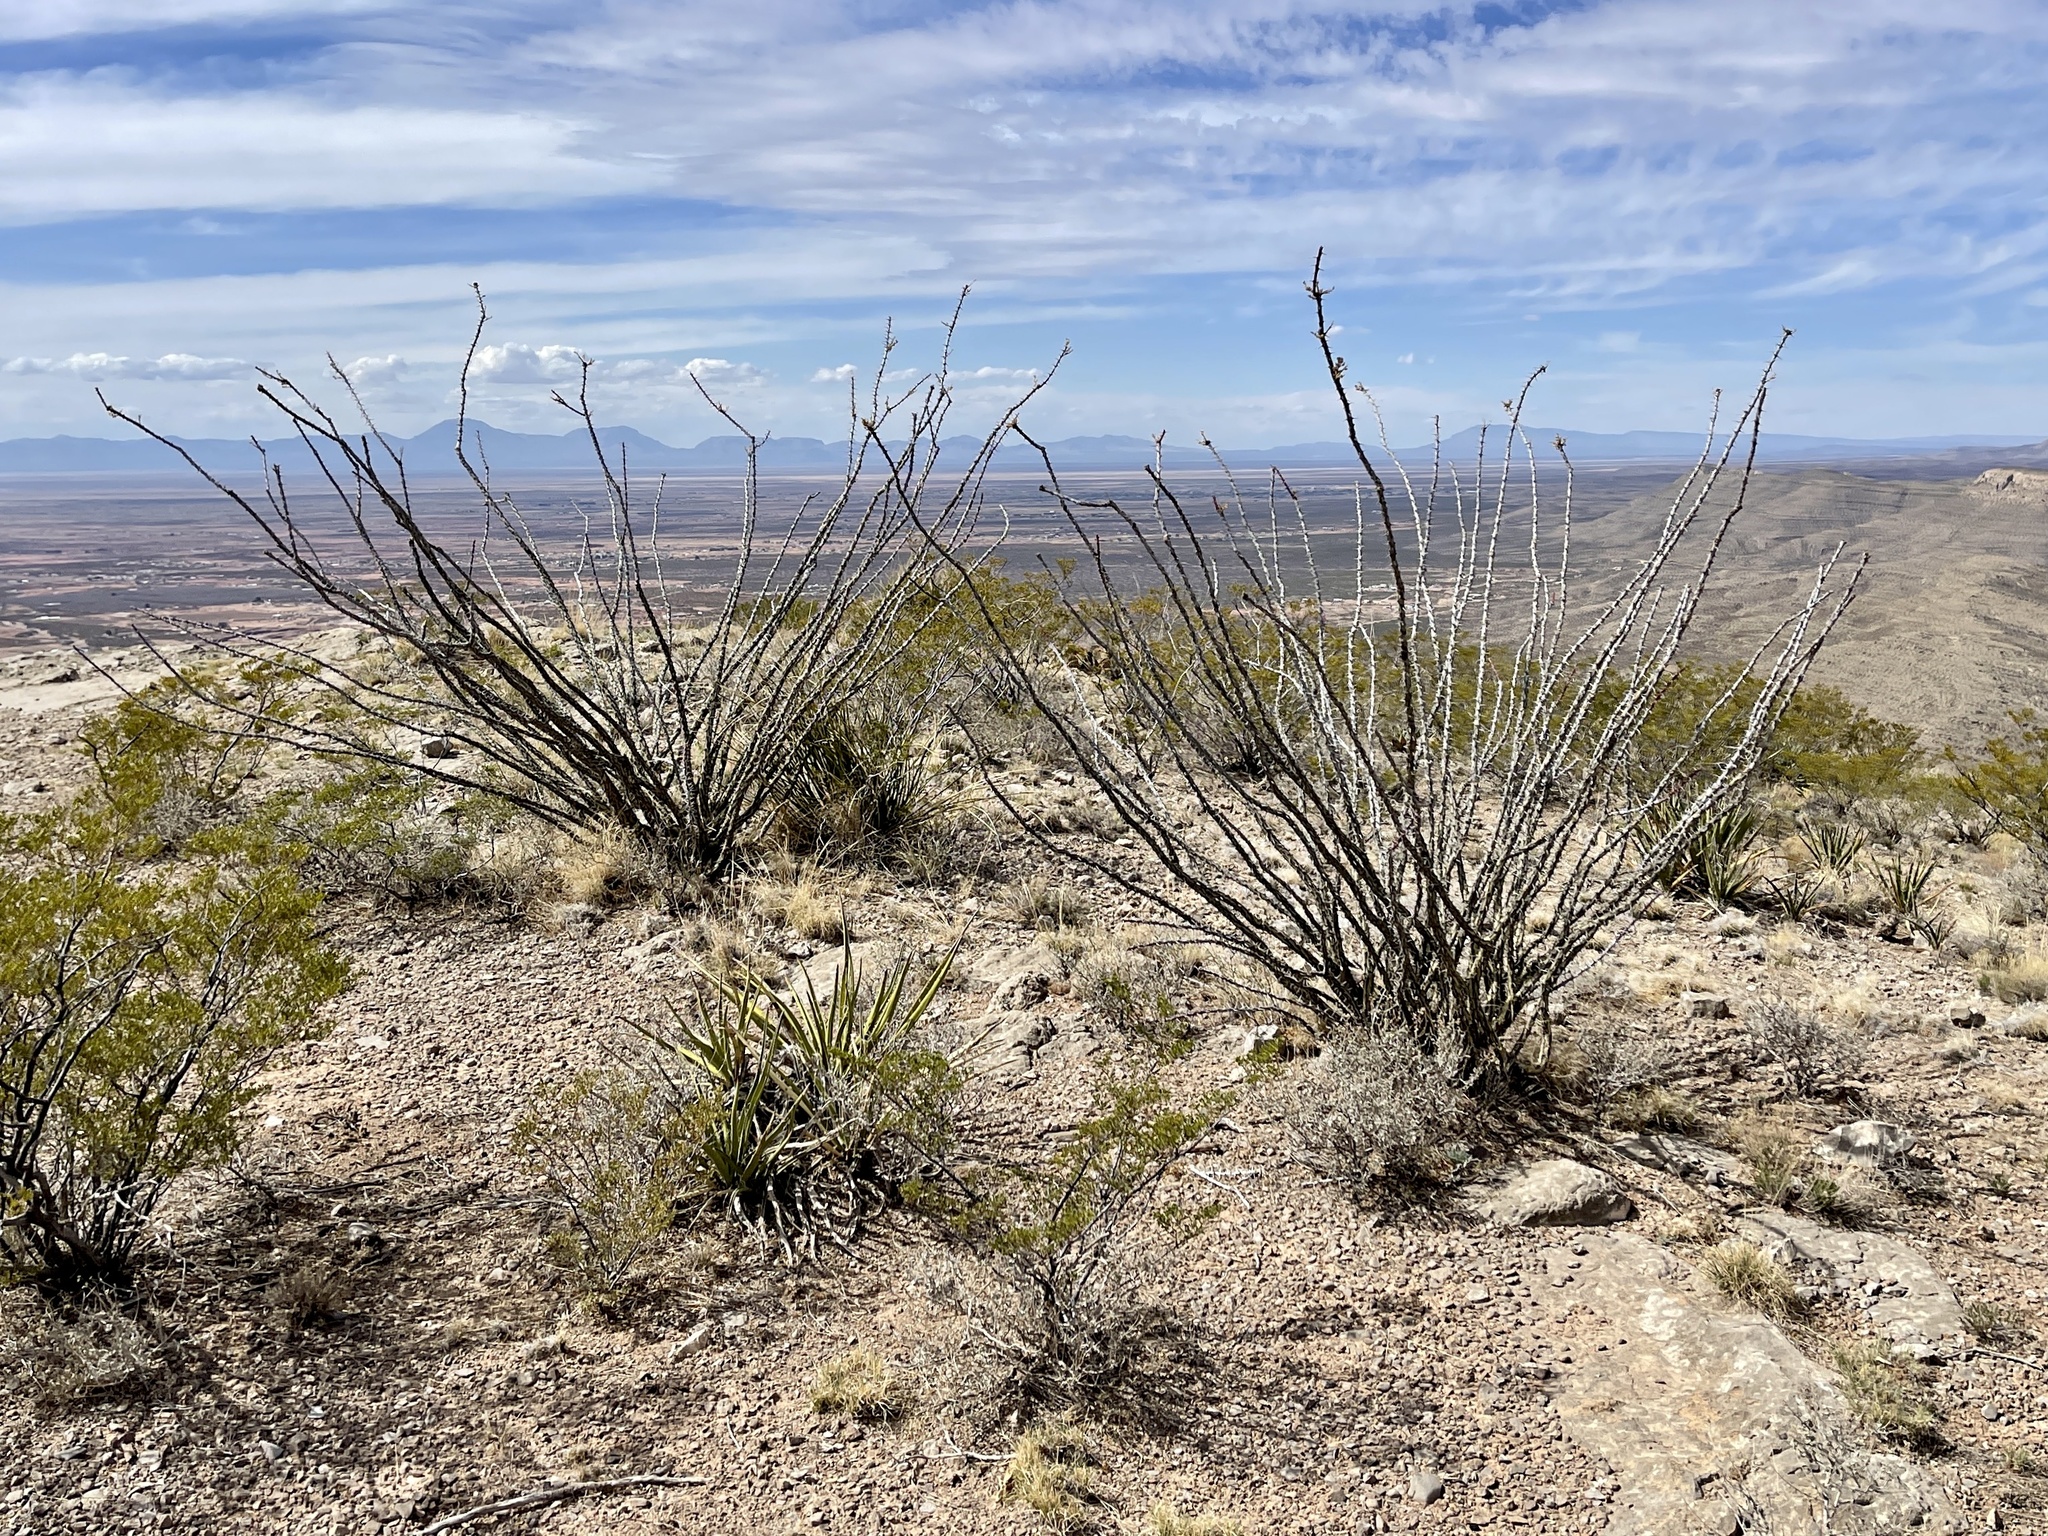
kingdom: Plantae
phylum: Tracheophyta
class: Magnoliopsida
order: Ericales
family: Fouquieriaceae
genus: Fouquieria
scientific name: Fouquieria splendens
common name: Vine-cactus
